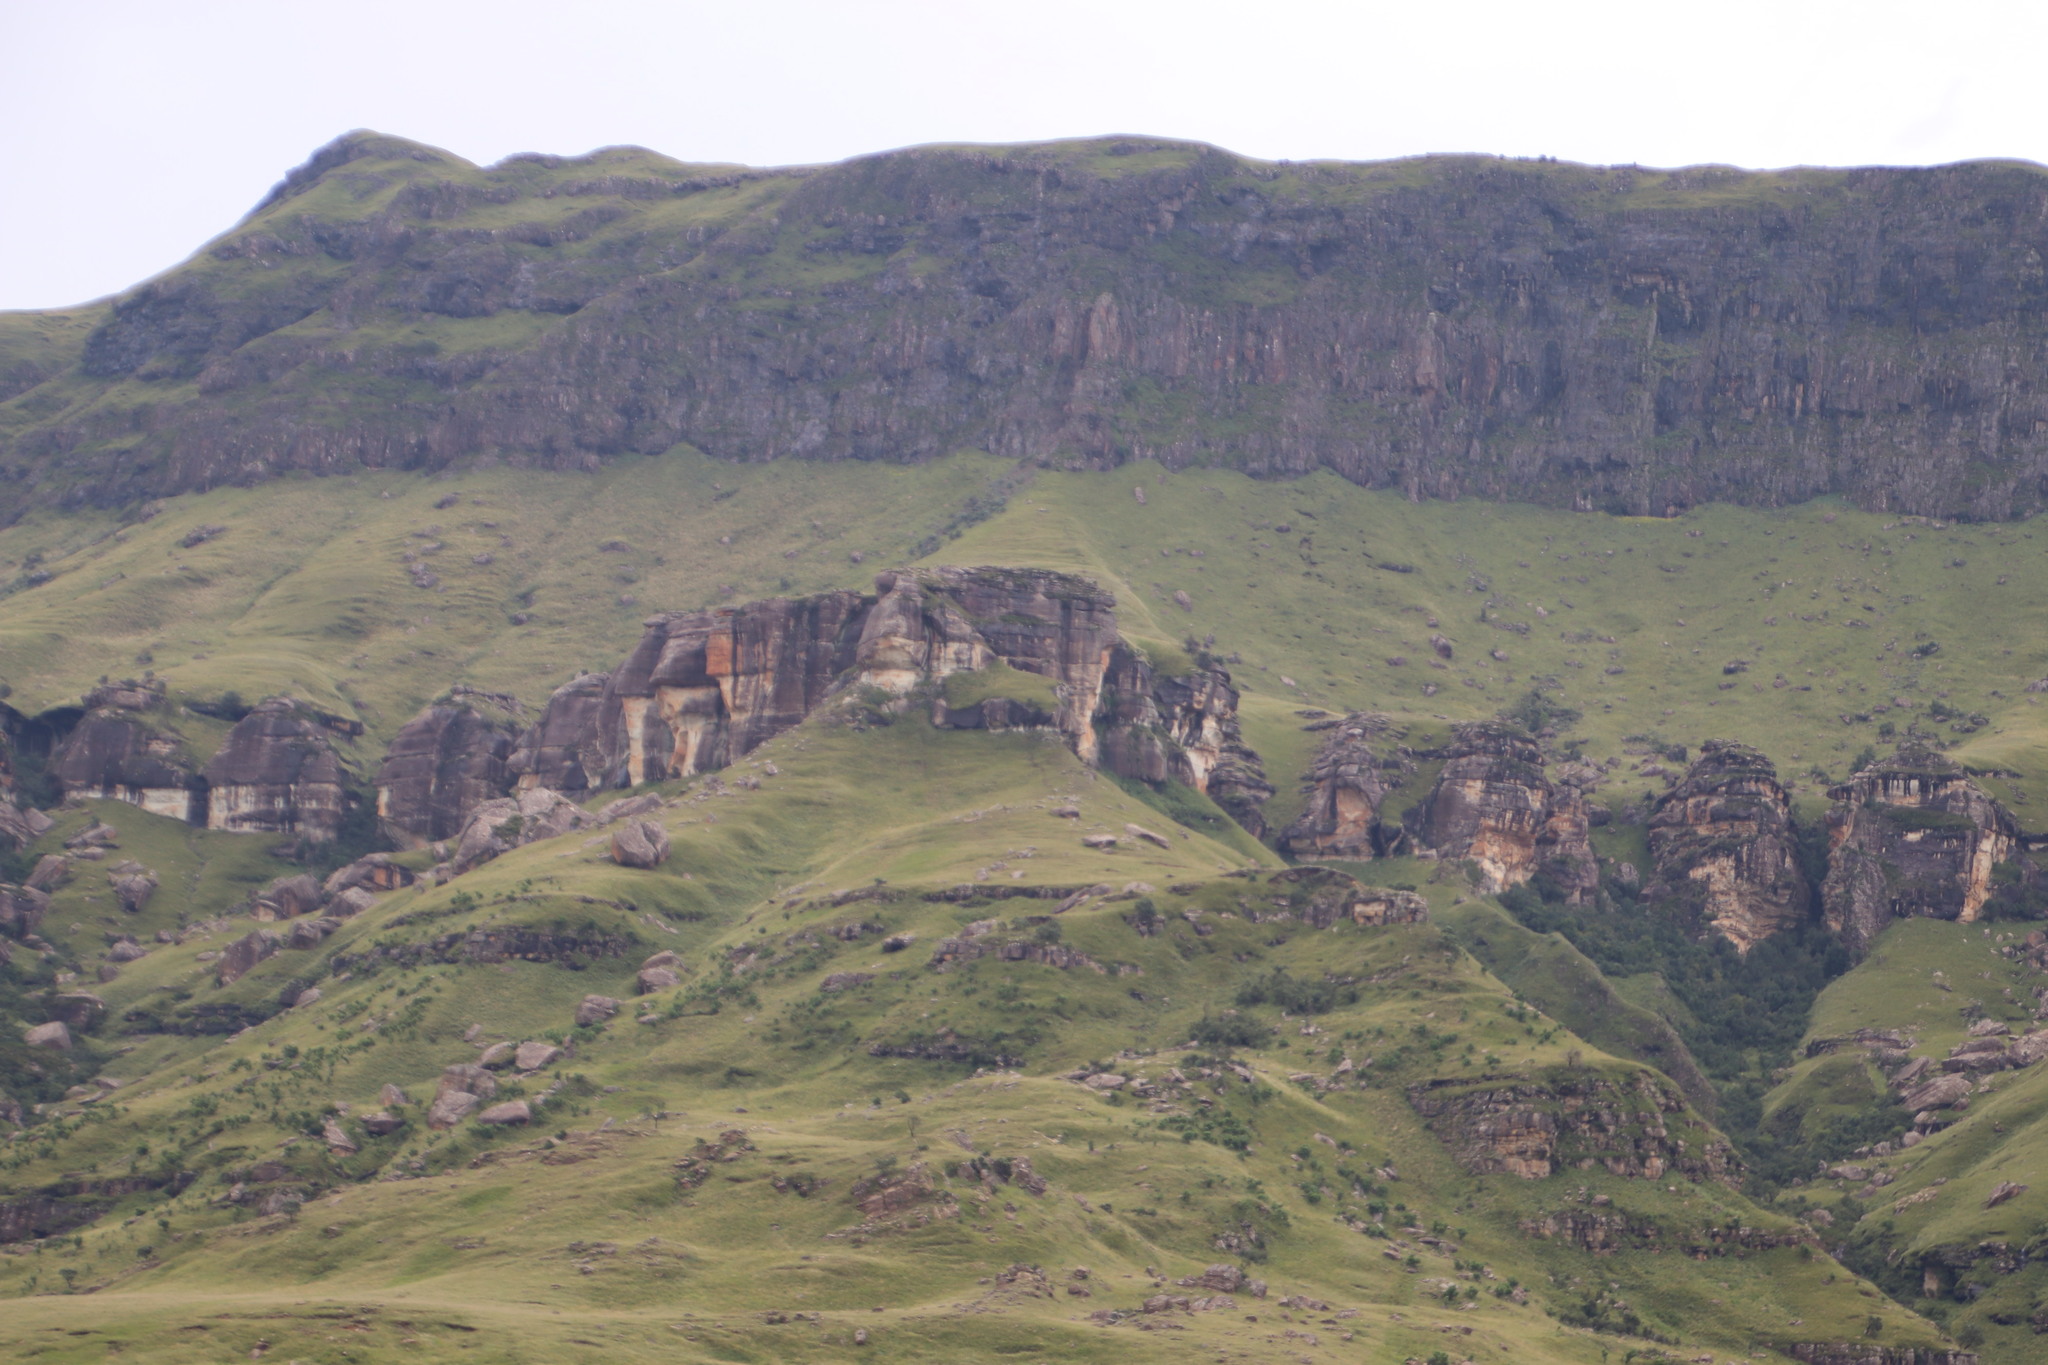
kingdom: Plantae
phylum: Tracheophyta
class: Magnoliopsida
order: Rosales
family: Rosaceae
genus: Leucosidea
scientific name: Leucosidea sericea
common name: Oldwood
